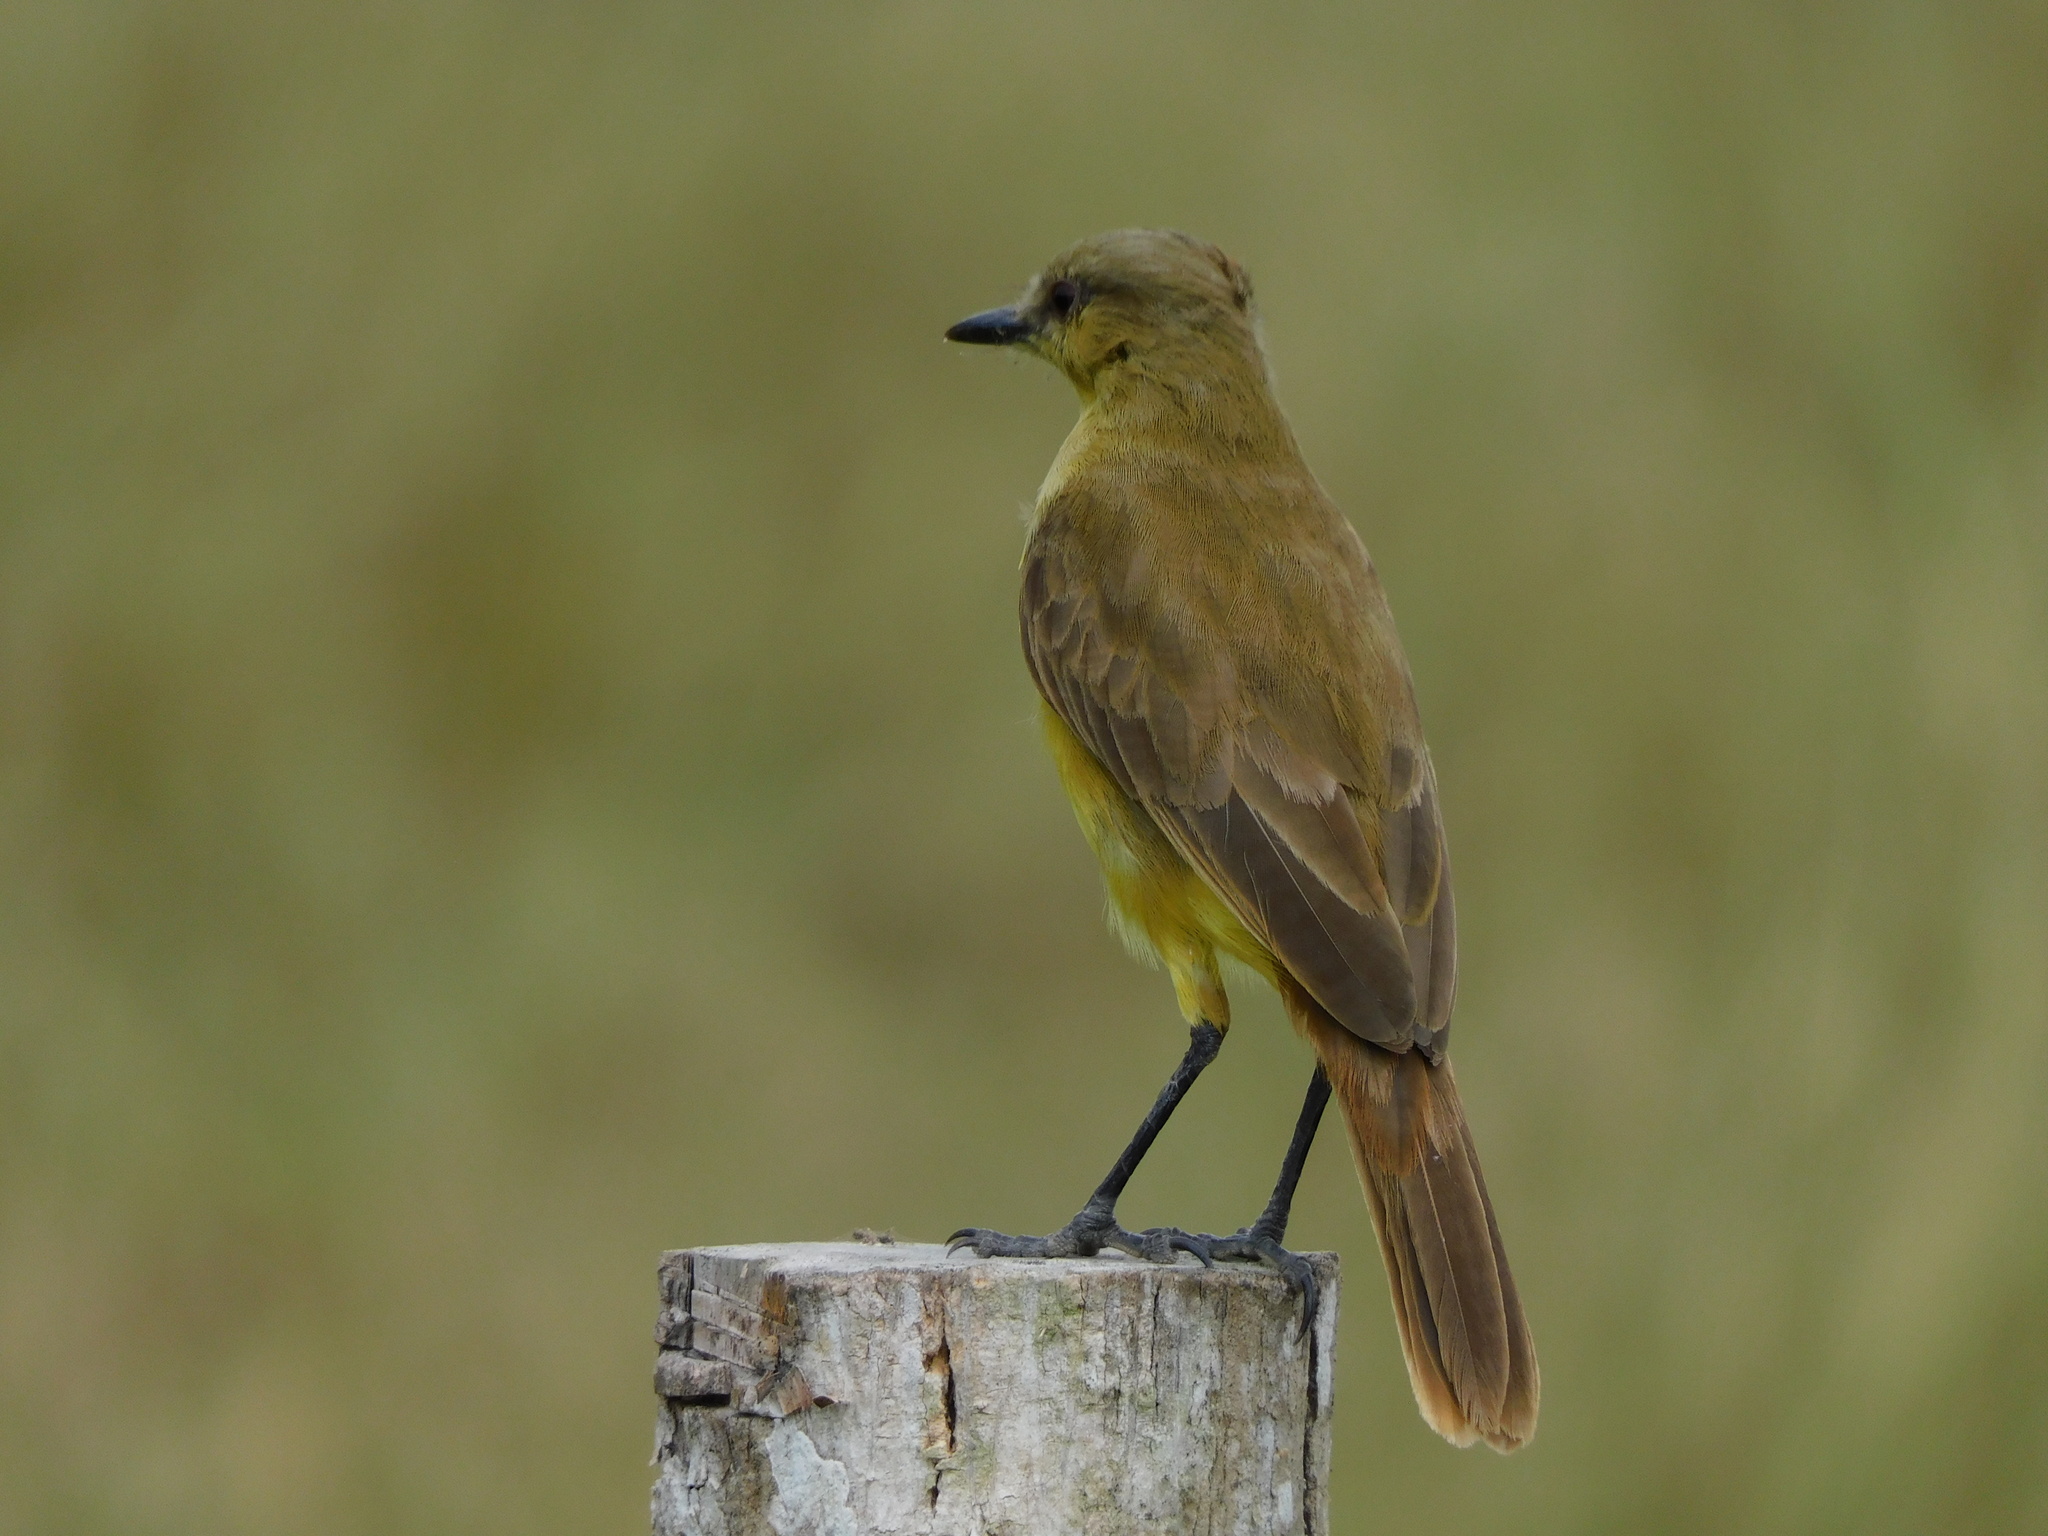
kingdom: Animalia
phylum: Chordata
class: Aves
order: Passeriformes
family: Tyrannidae
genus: Machetornis
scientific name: Machetornis rixosa
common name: Cattle tyrant
